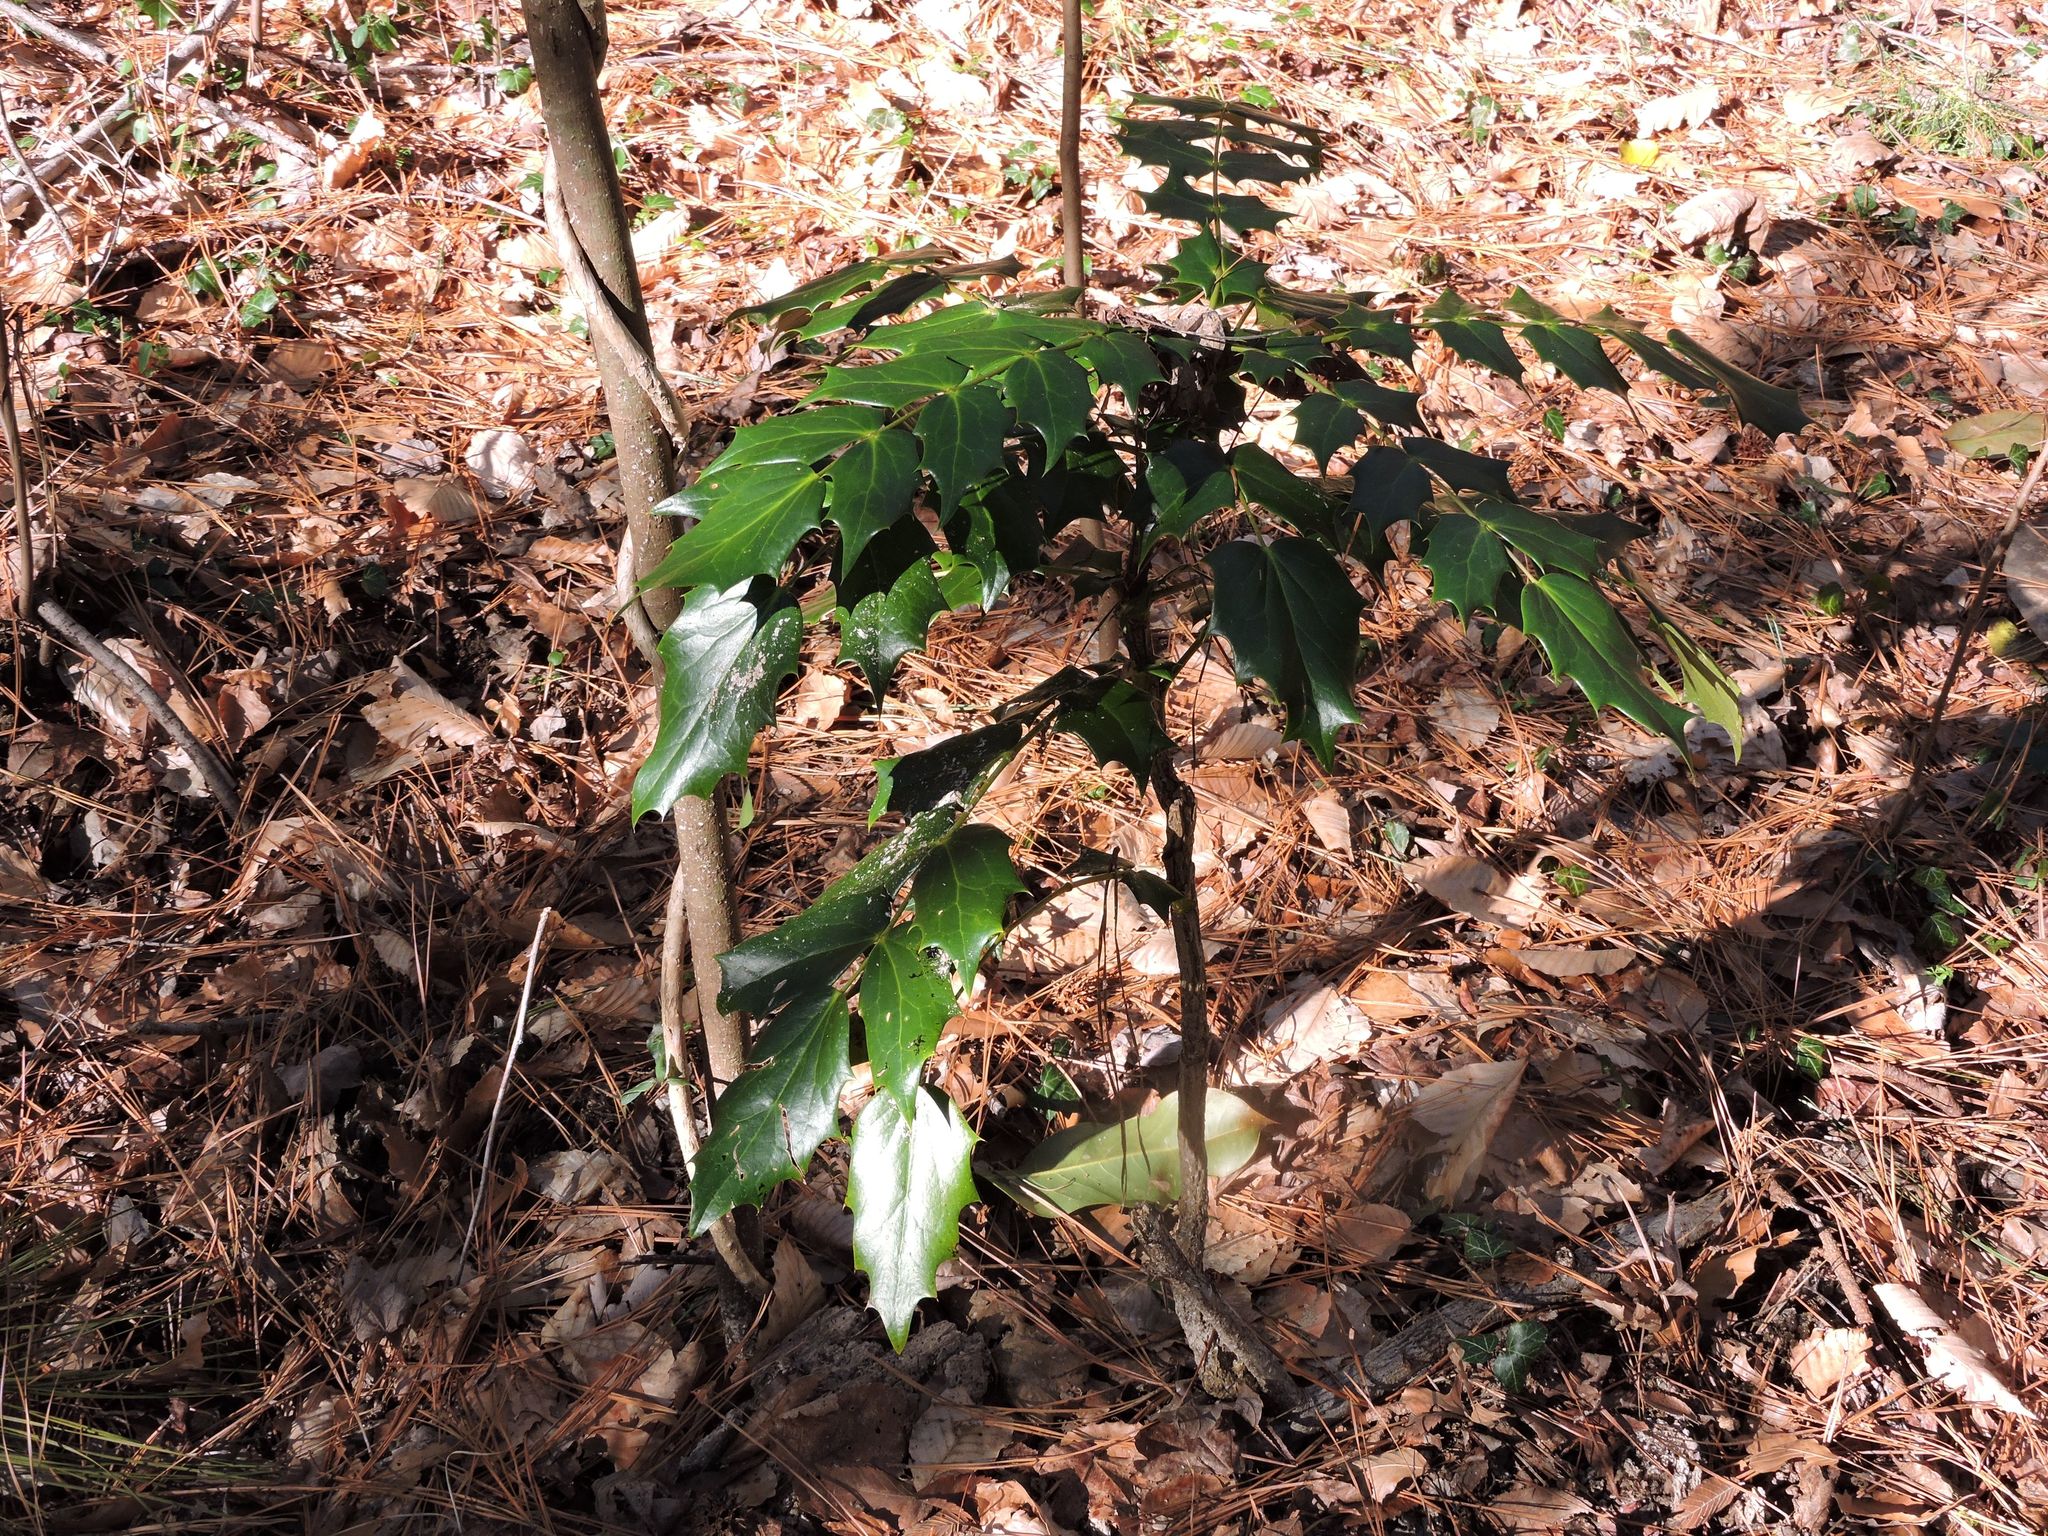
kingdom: Plantae
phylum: Tracheophyta
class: Magnoliopsida
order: Ranunculales
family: Berberidaceae
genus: Mahonia
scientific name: Mahonia bealei
